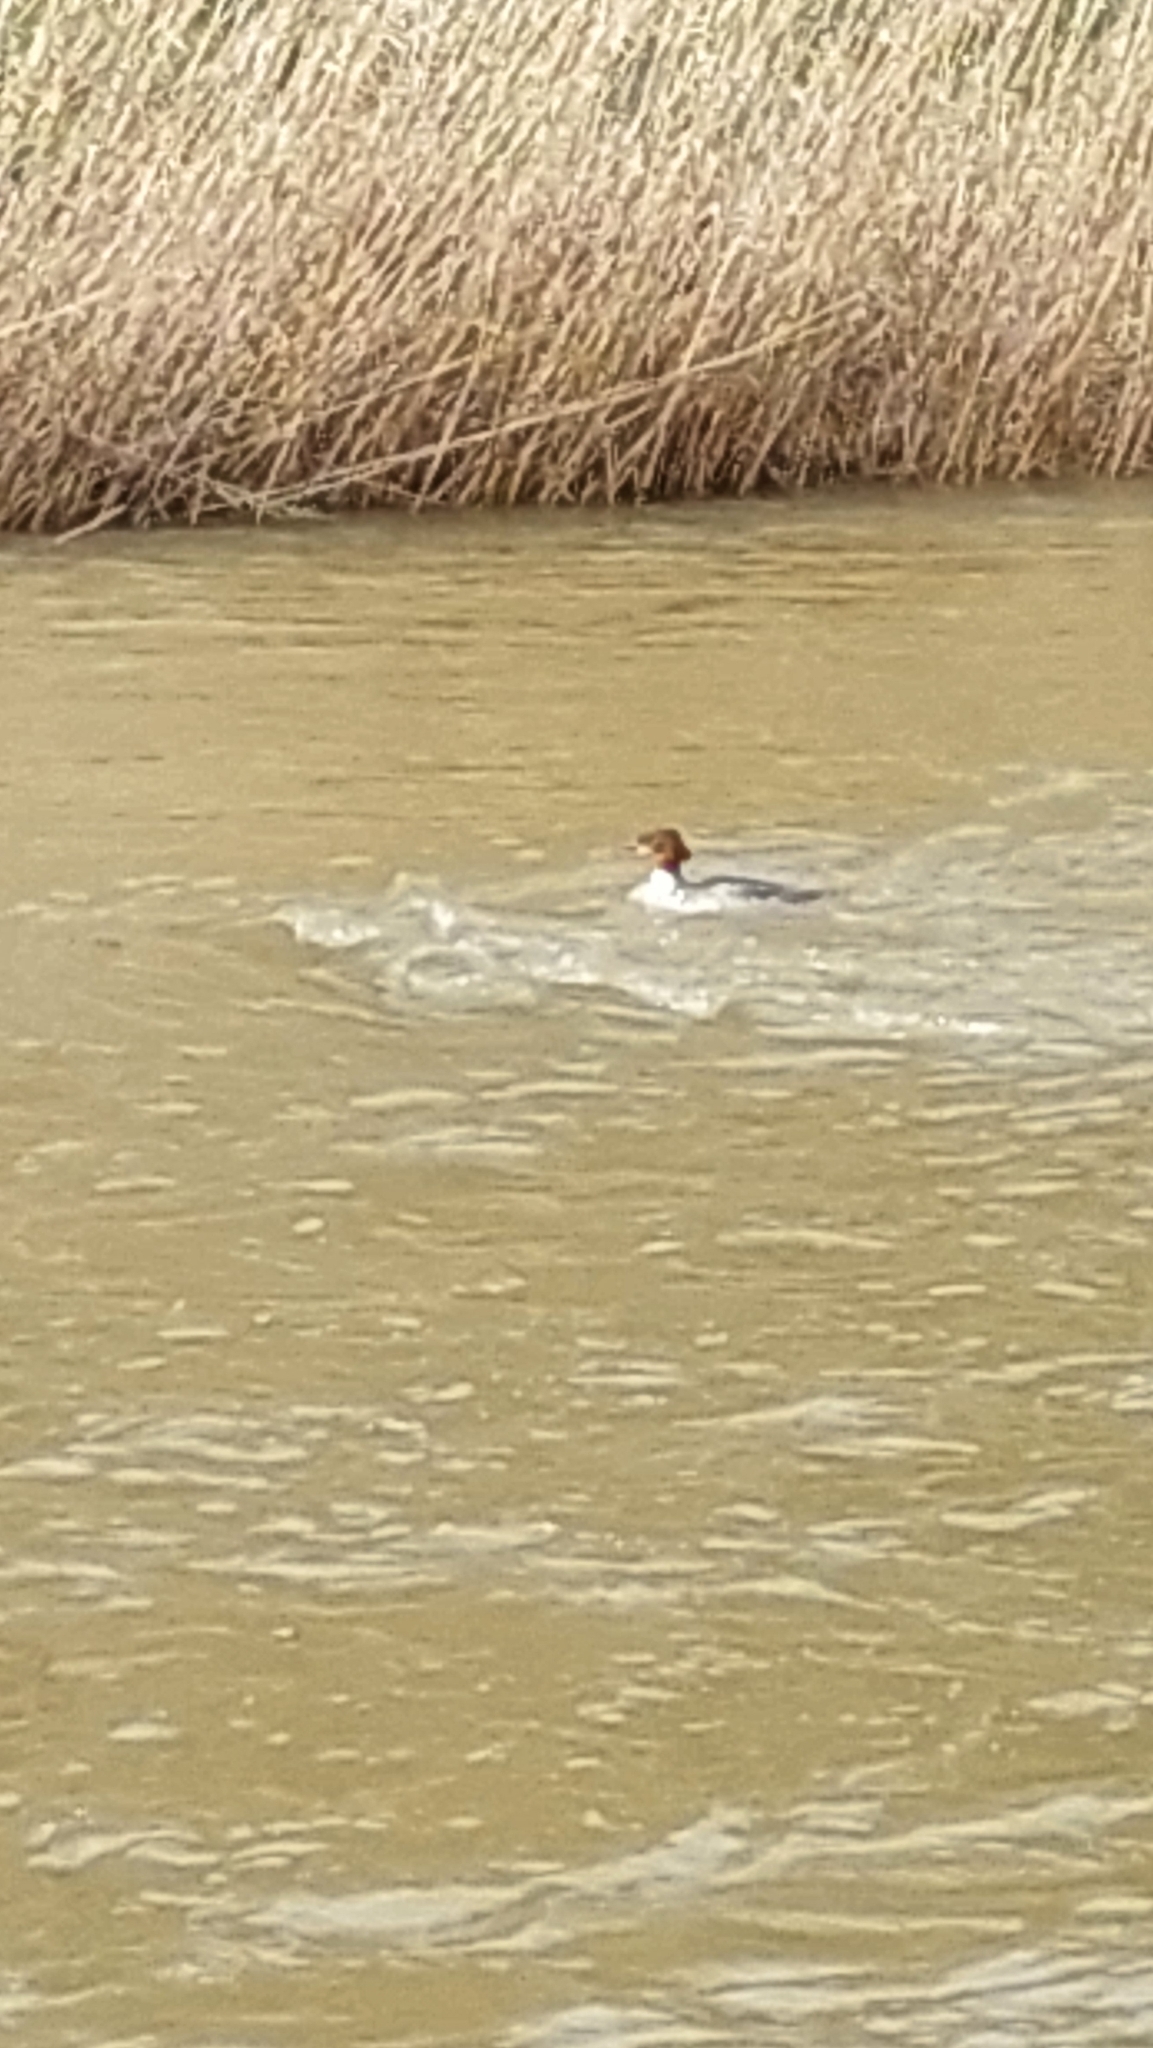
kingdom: Animalia
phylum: Chordata
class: Aves
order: Anseriformes
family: Anatidae
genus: Mergus
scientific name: Mergus merganser
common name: Common merganser
